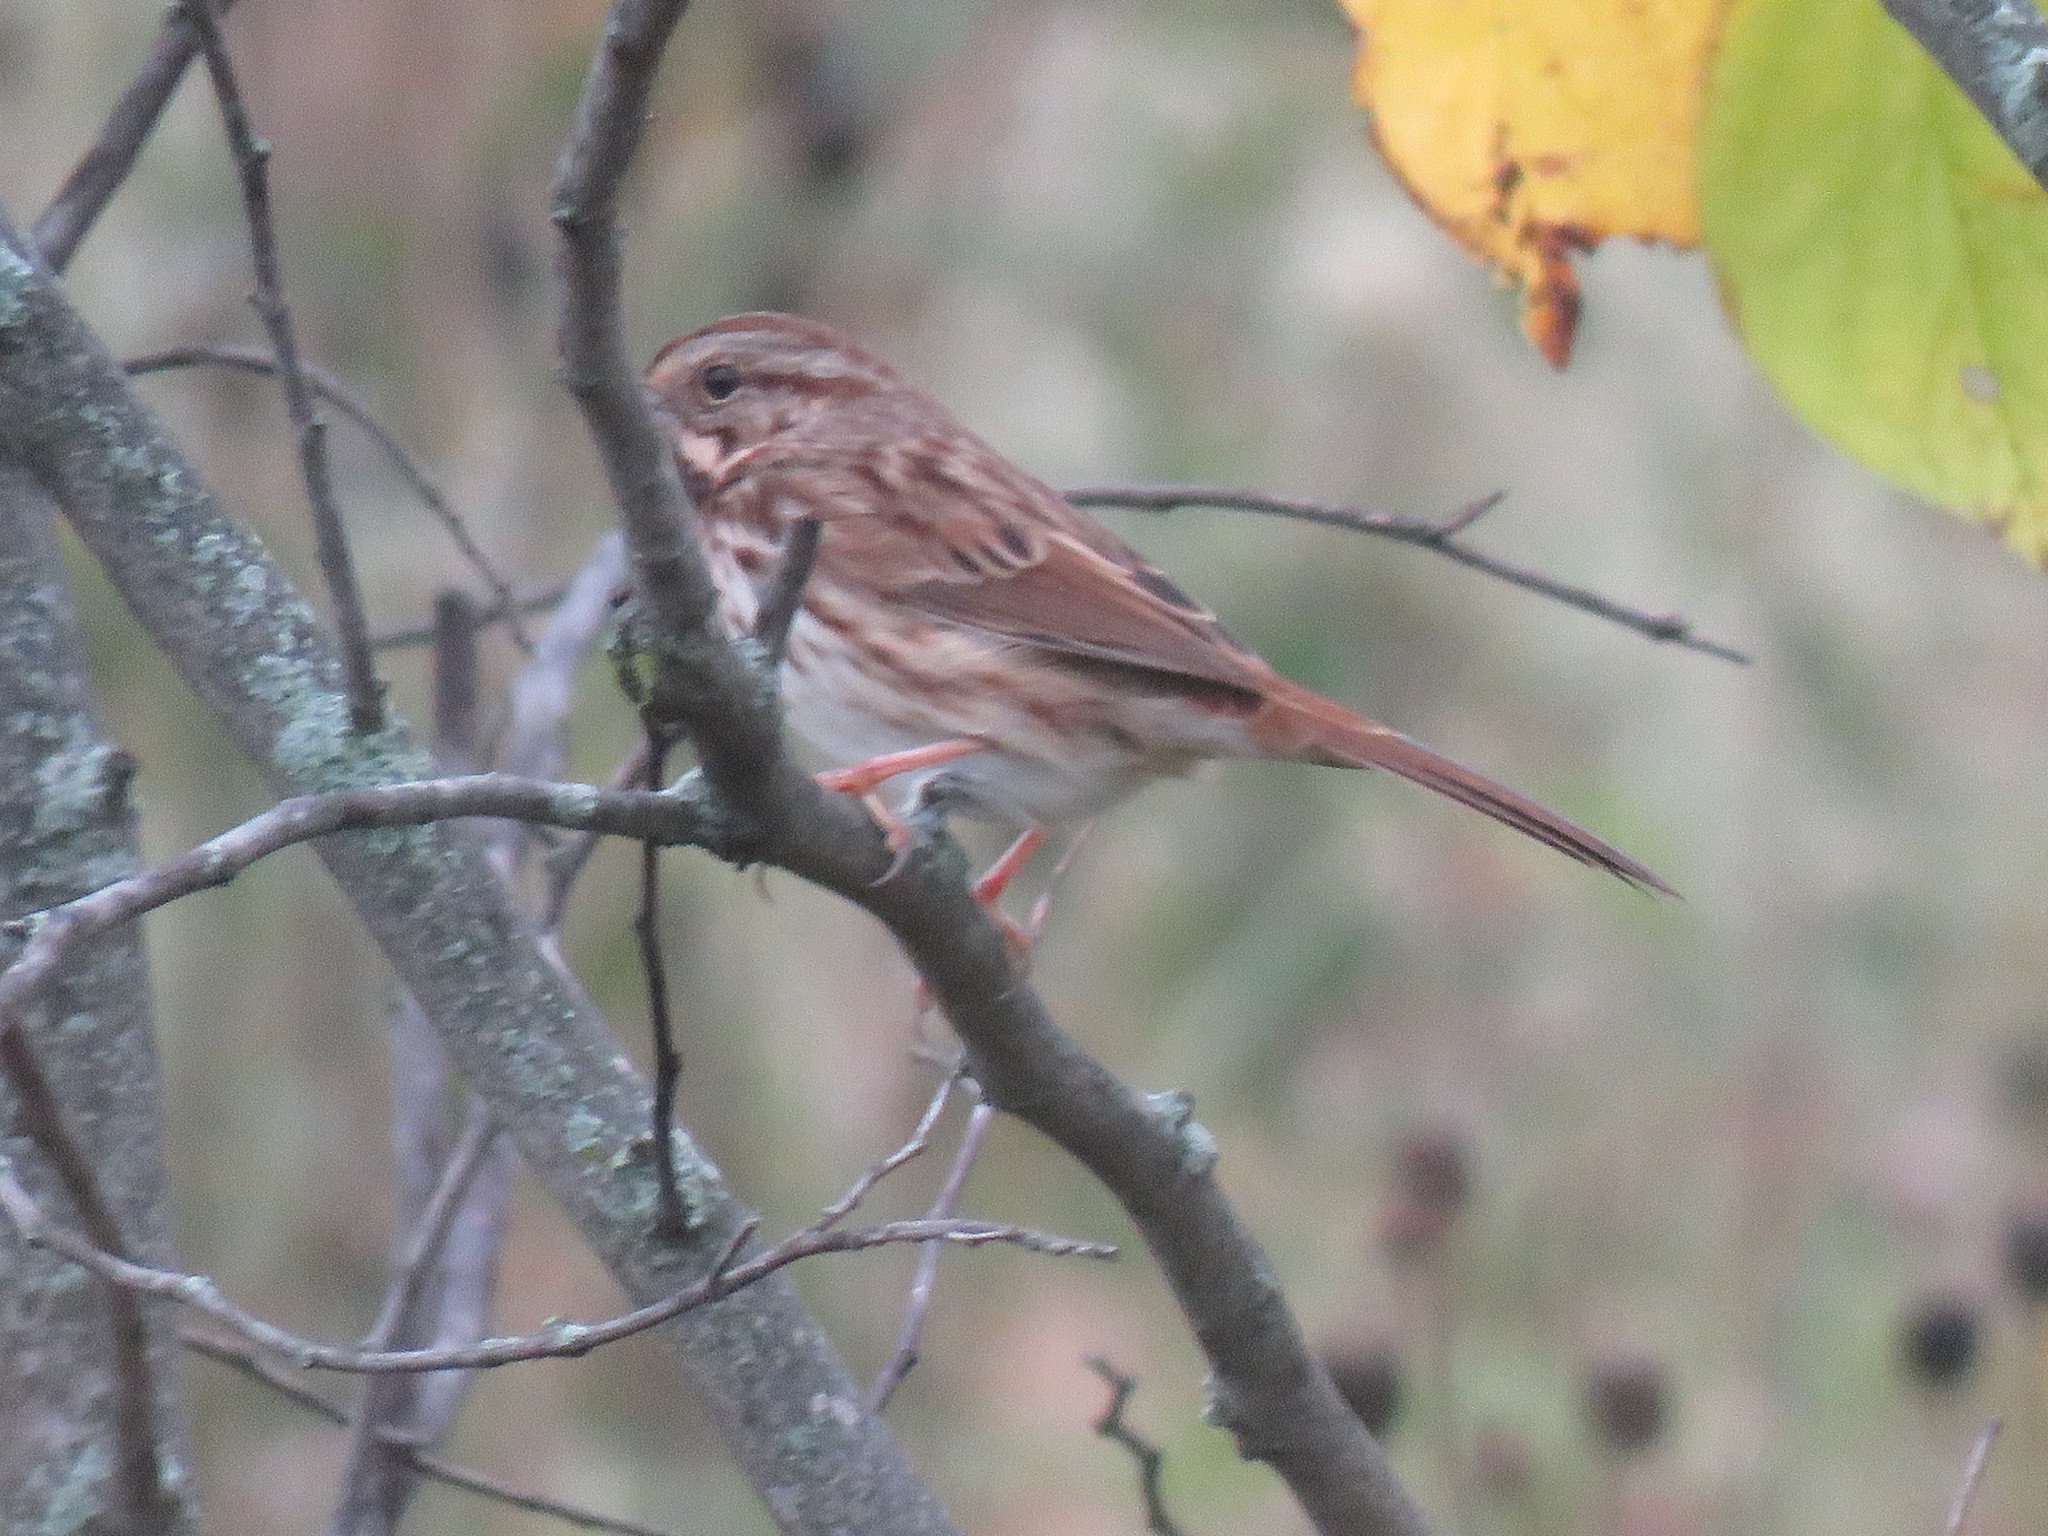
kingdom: Animalia
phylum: Chordata
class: Aves
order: Passeriformes
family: Passerellidae
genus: Melospiza
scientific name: Melospiza melodia
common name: Song sparrow
